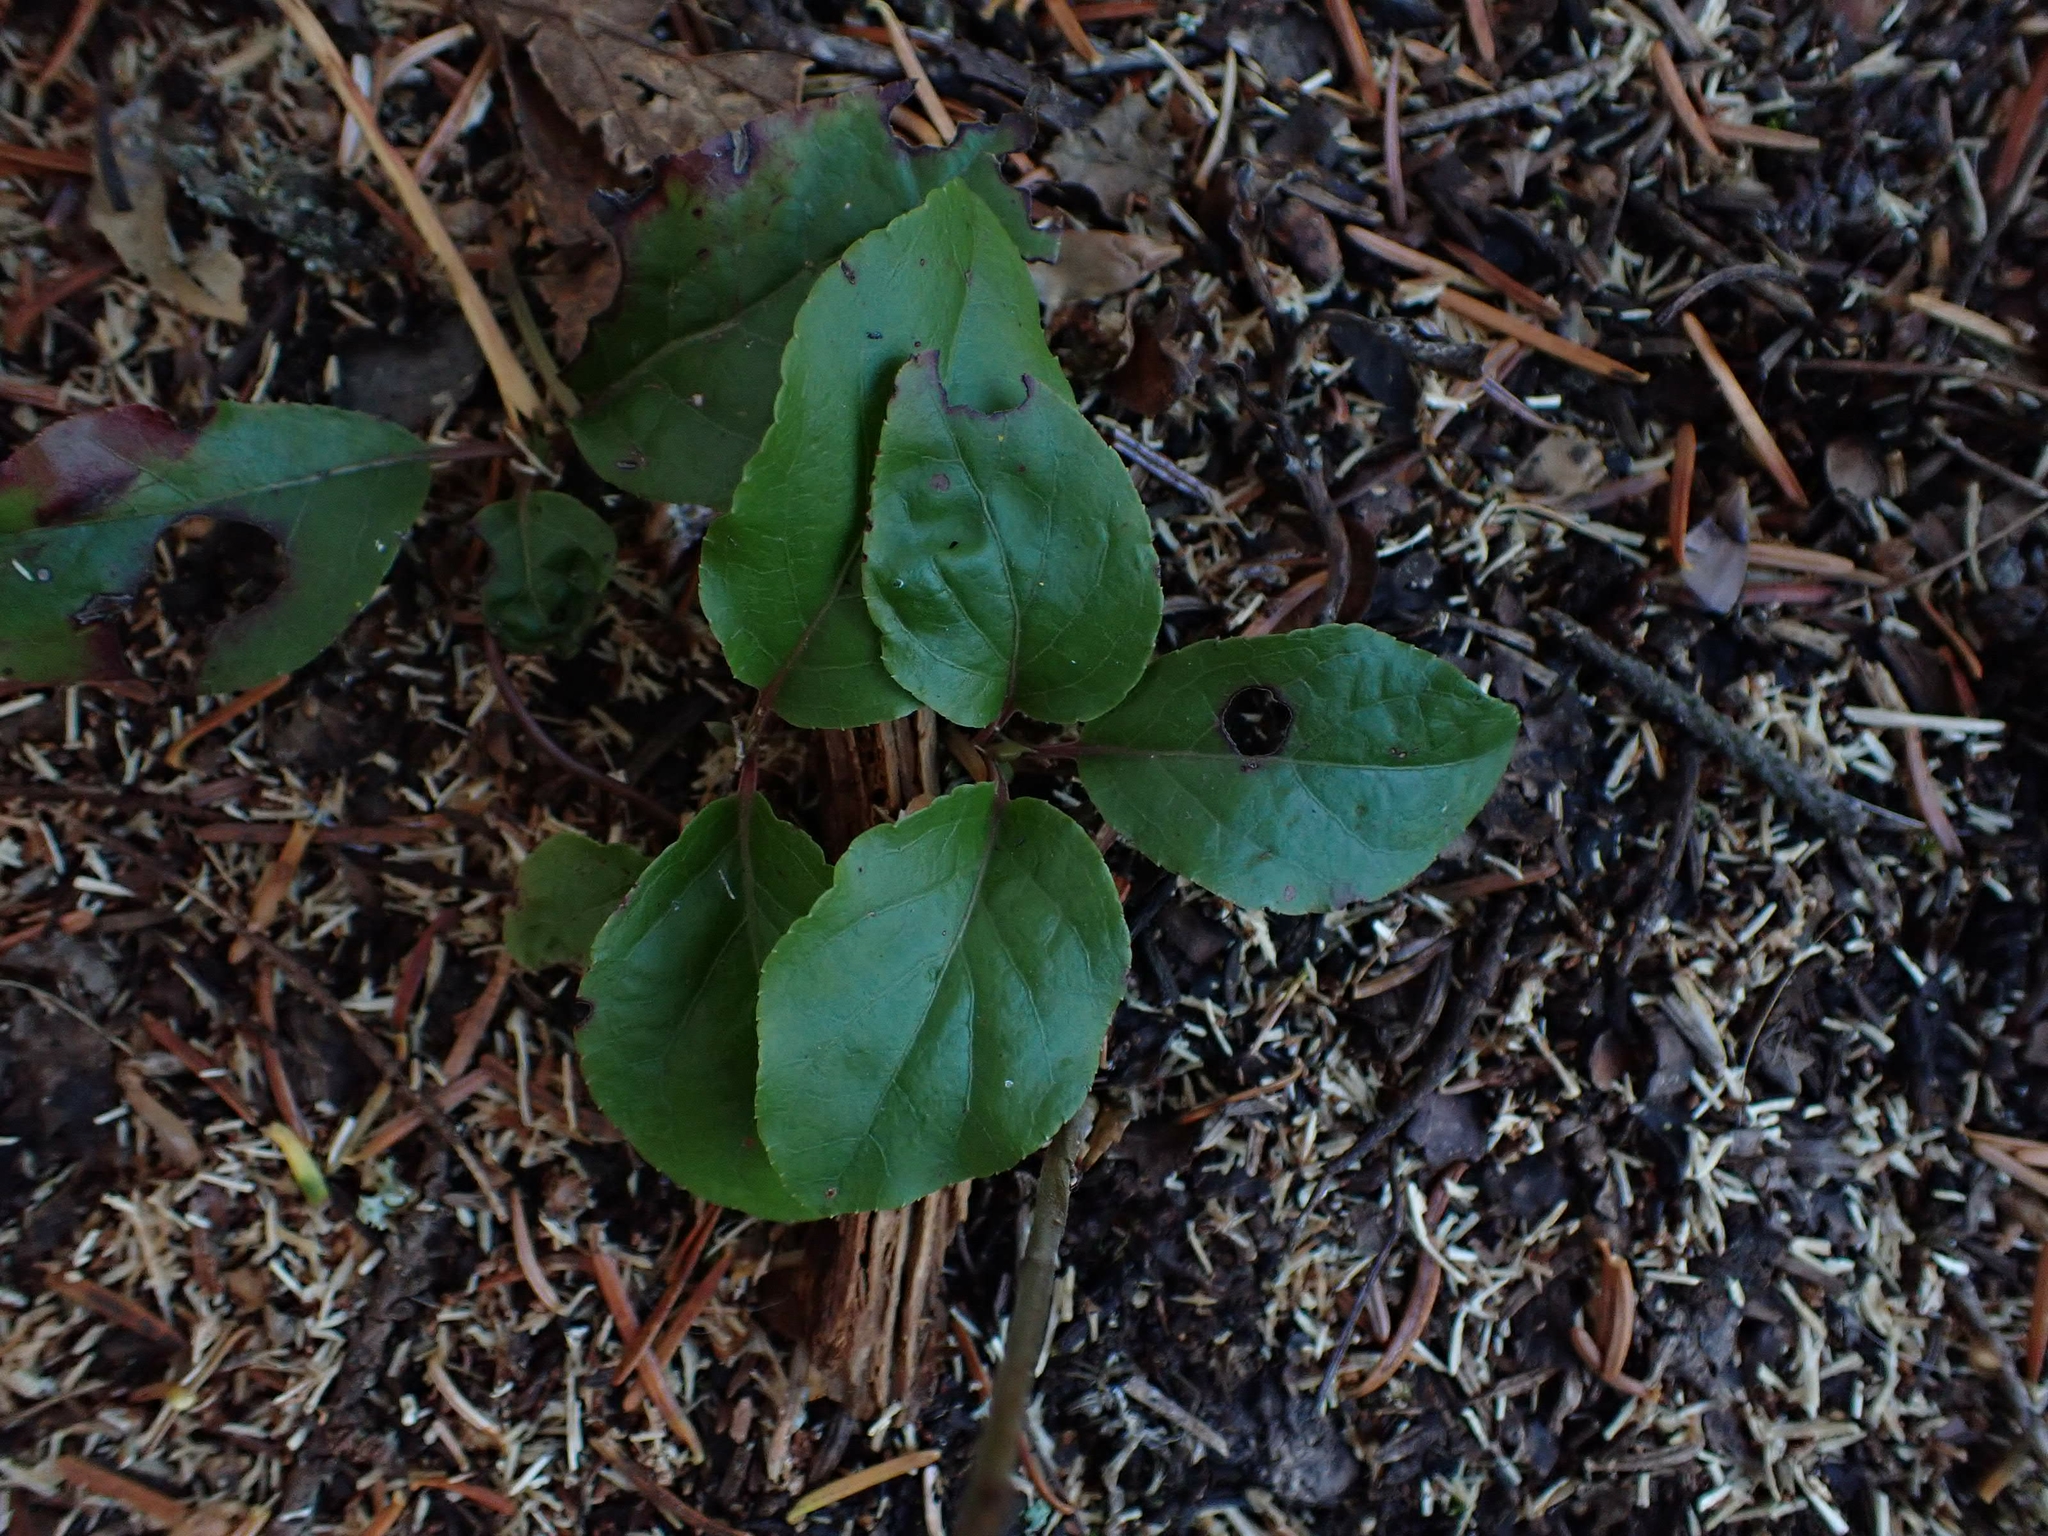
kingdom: Plantae
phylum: Tracheophyta
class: Magnoliopsida
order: Ericales
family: Ericaceae
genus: Orthilia
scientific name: Orthilia secunda
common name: One-sided orthilia
